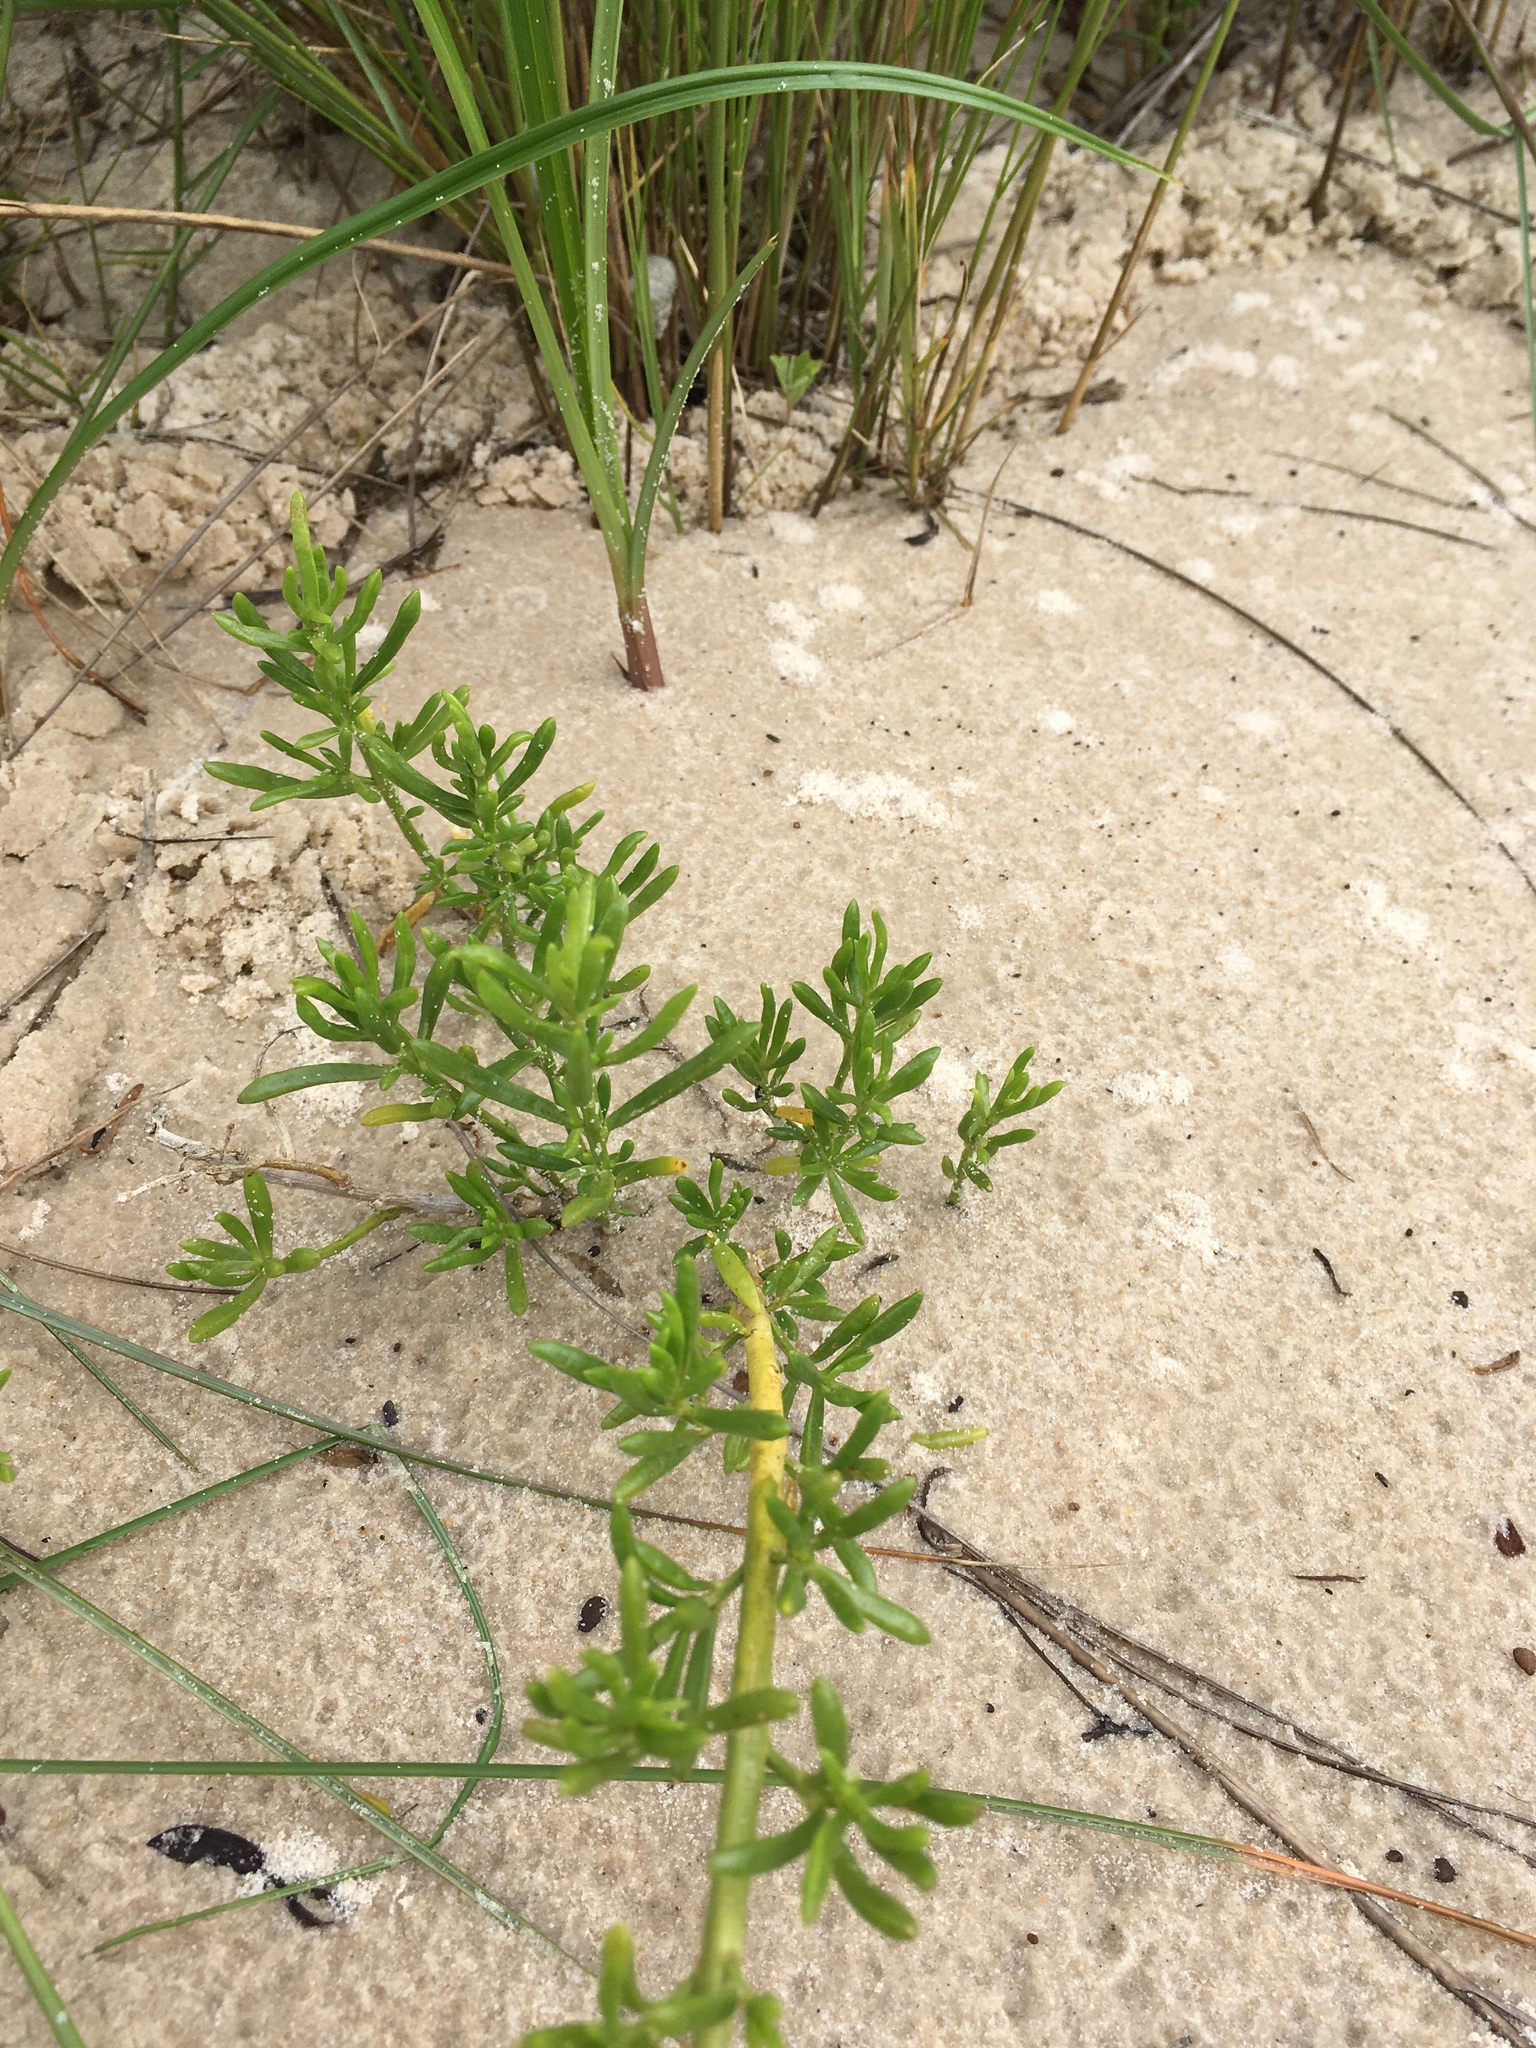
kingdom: Plantae
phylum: Tracheophyta
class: Magnoliopsida
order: Brassicales
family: Bataceae
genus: Batis
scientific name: Batis maritima
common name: Turtleweed
